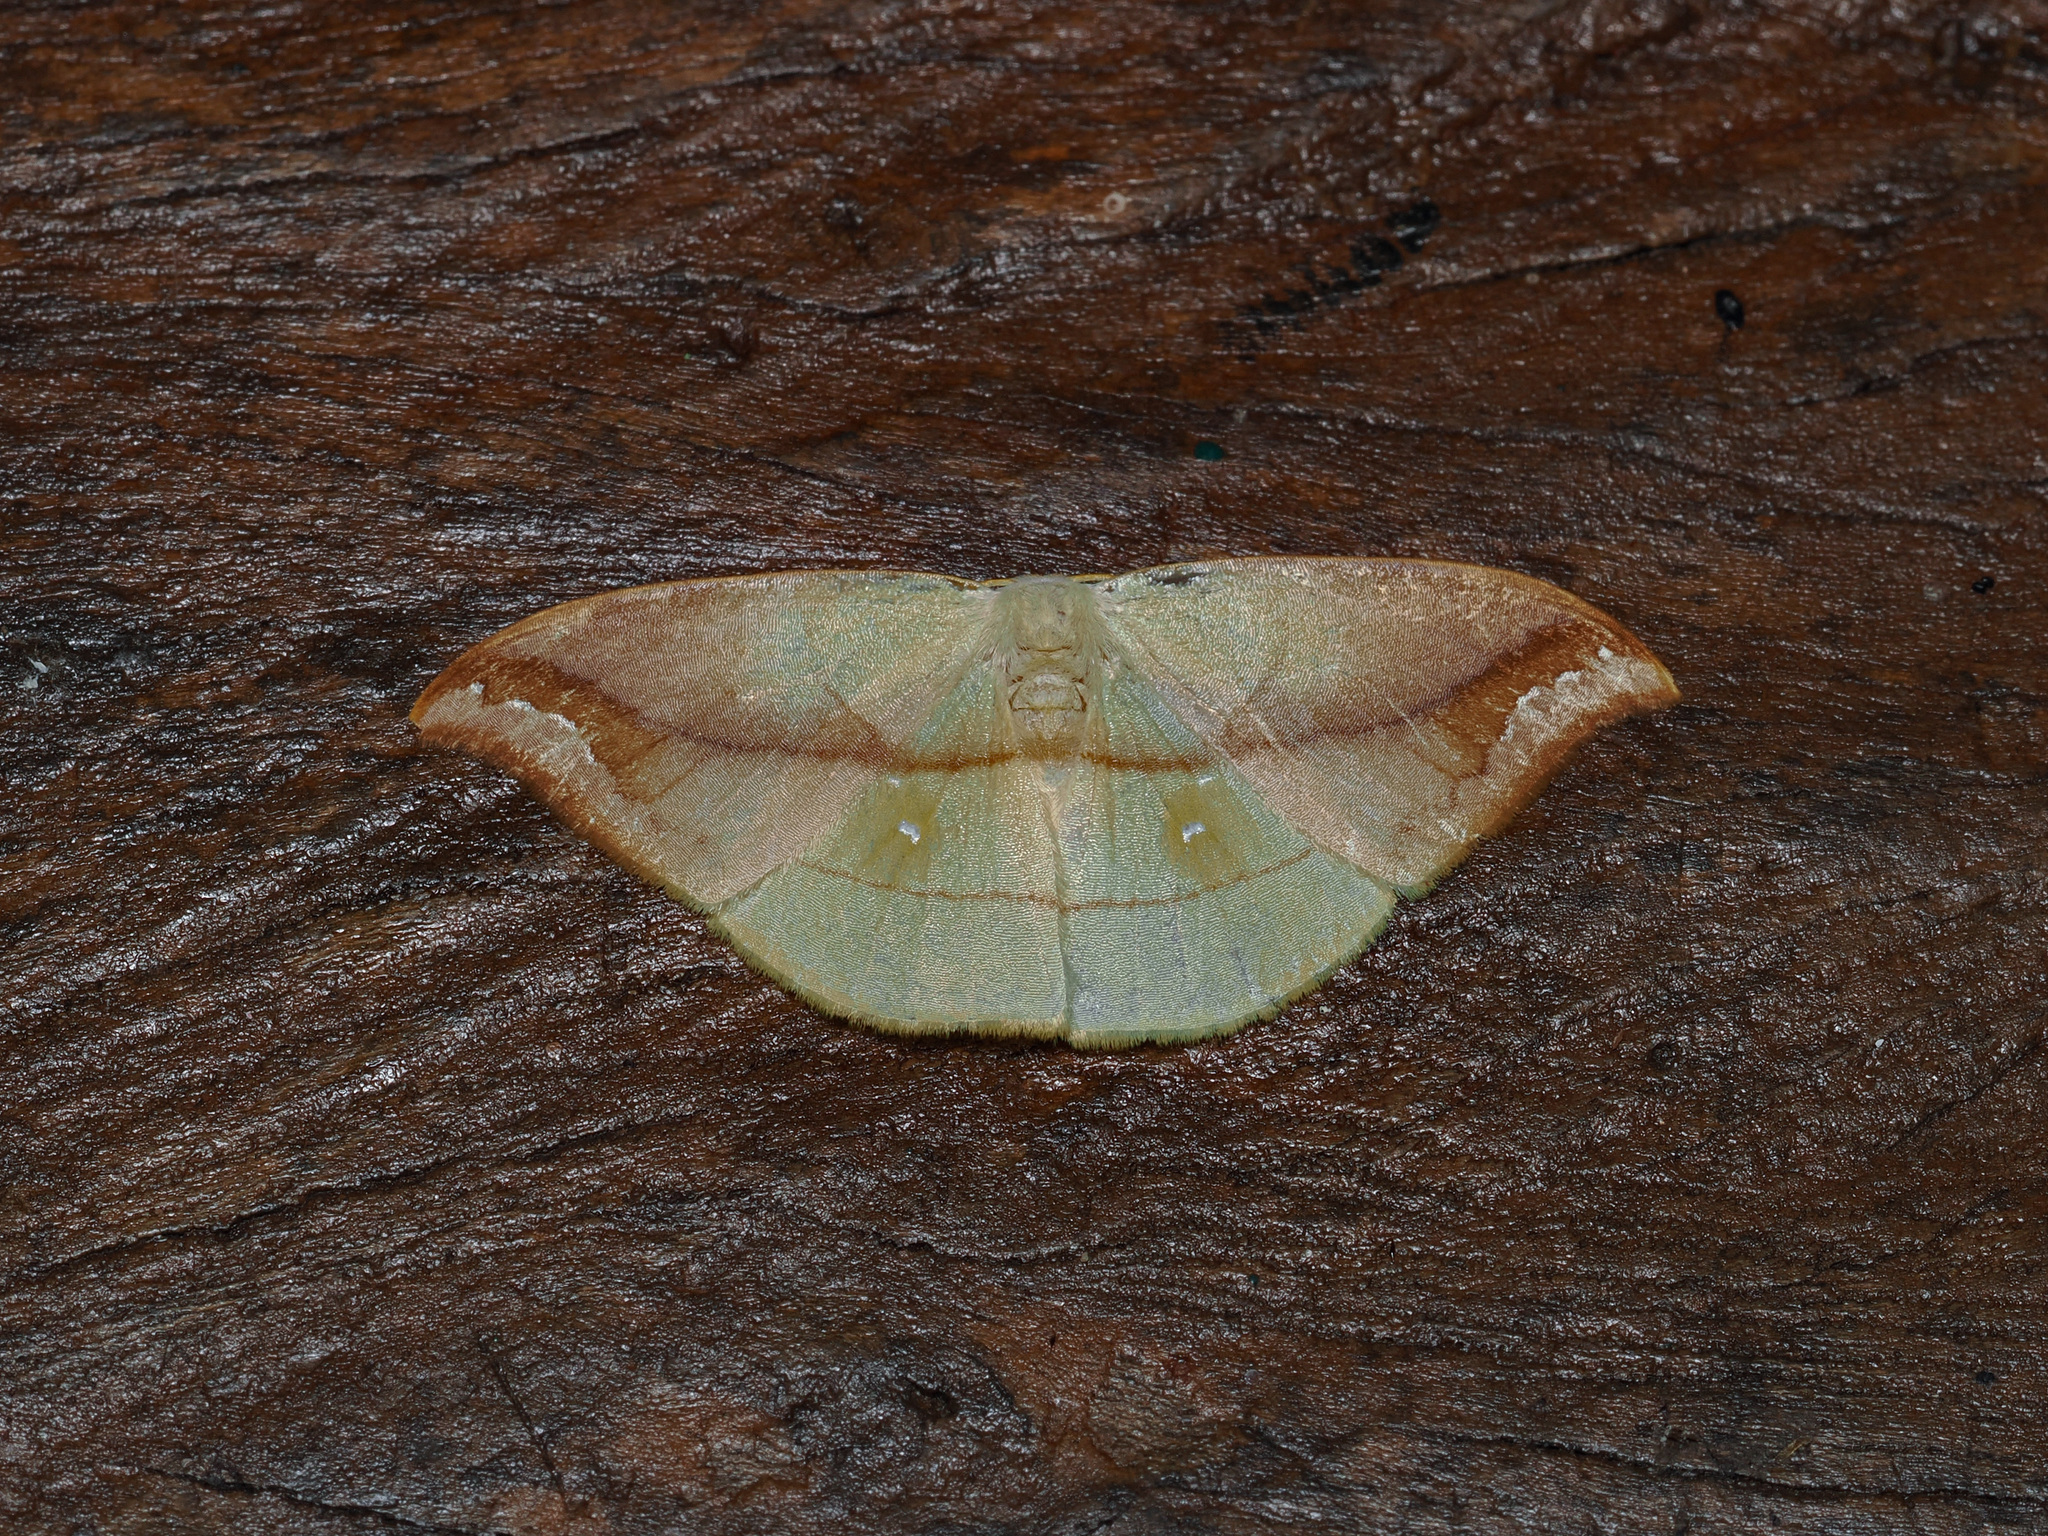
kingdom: Animalia
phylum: Arthropoda
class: Insecta
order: Lepidoptera
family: Drepanidae
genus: Tridrepana
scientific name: Tridrepana argentistriga
